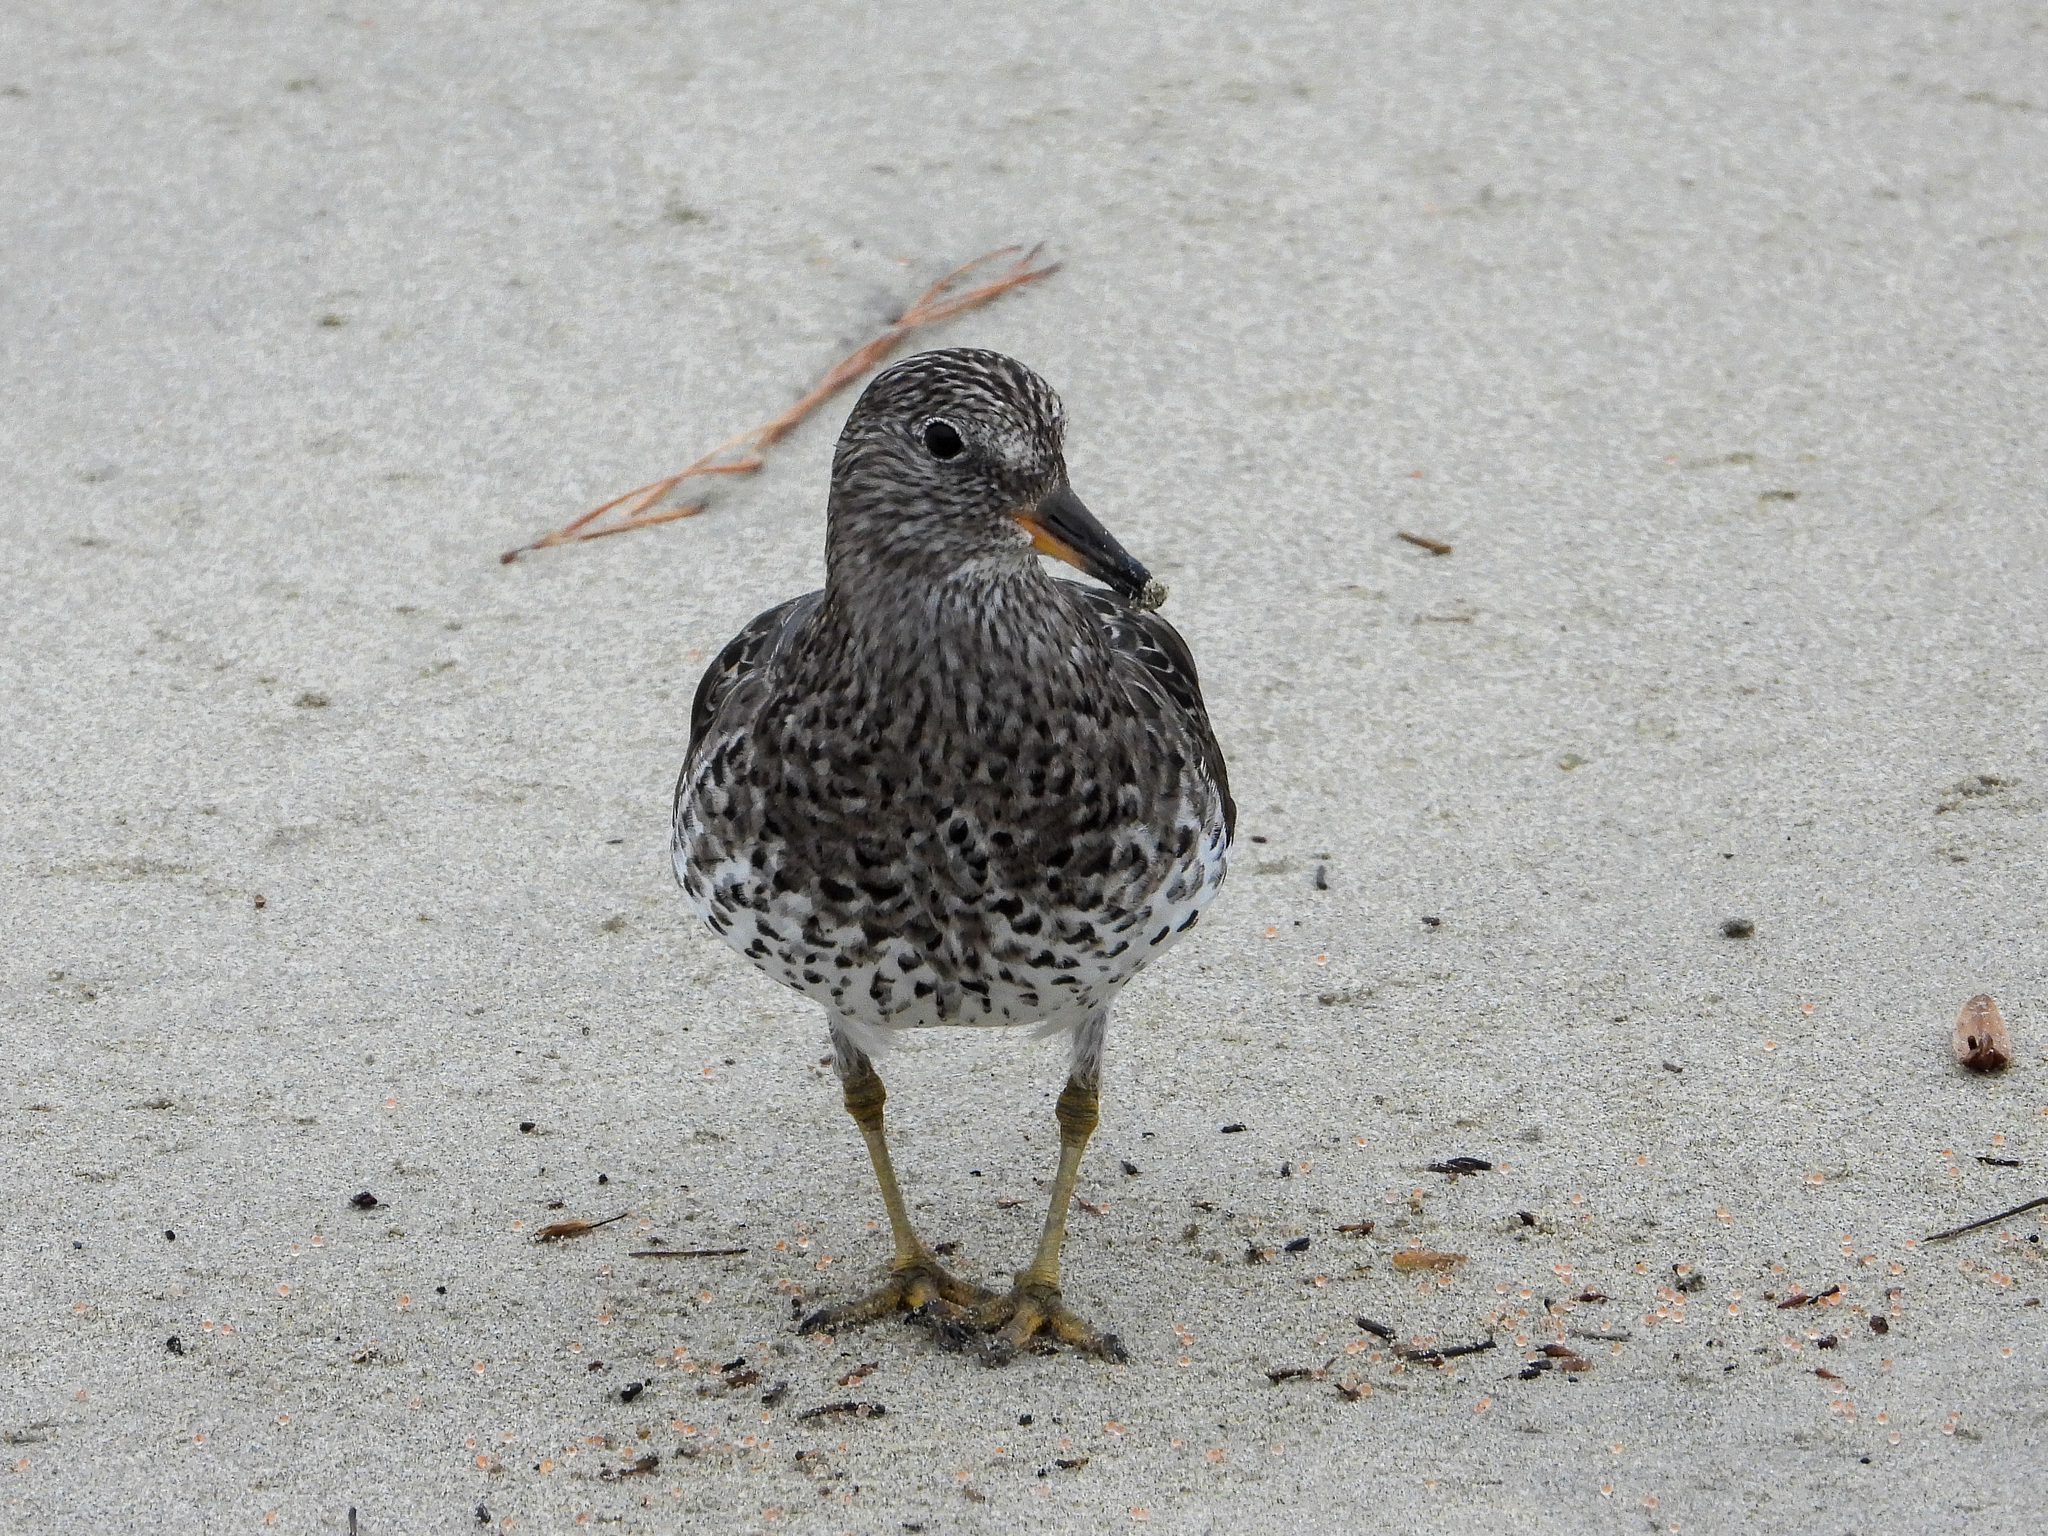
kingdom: Animalia
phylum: Chordata
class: Aves
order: Charadriiformes
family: Scolopacidae
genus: Calidris
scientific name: Calidris virgata
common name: Surfbird
